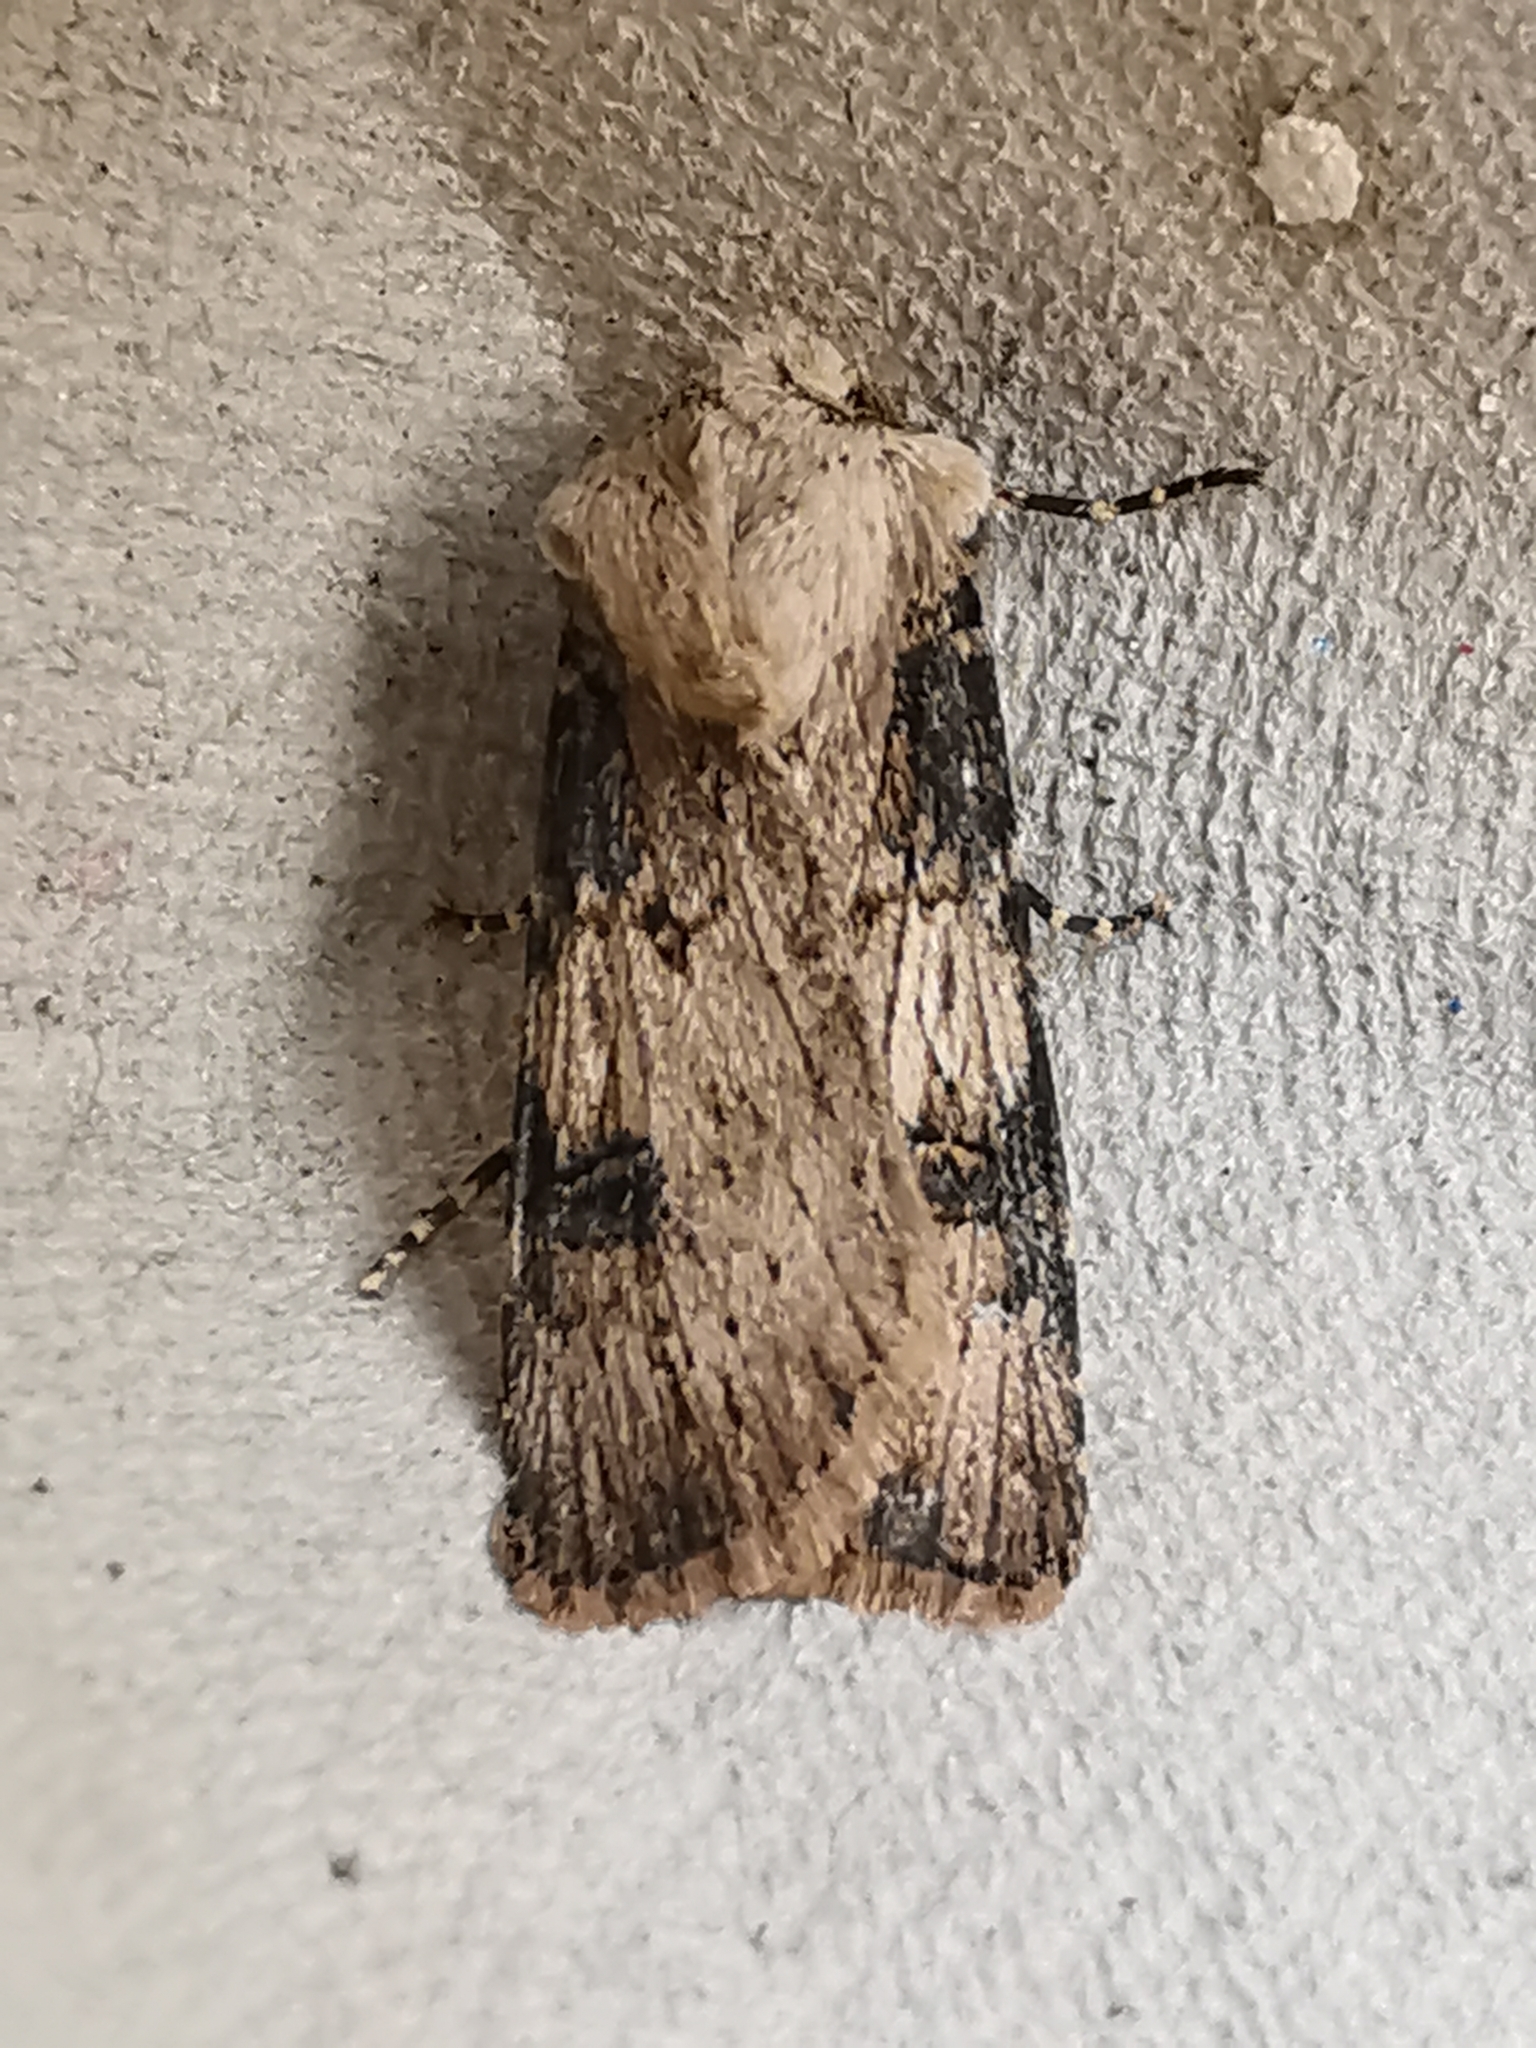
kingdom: Animalia
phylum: Arthropoda
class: Insecta
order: Lepidoptera
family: Noctuidae
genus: Agrotis
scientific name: Agrotis puta
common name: Shuttle-shaped dart
